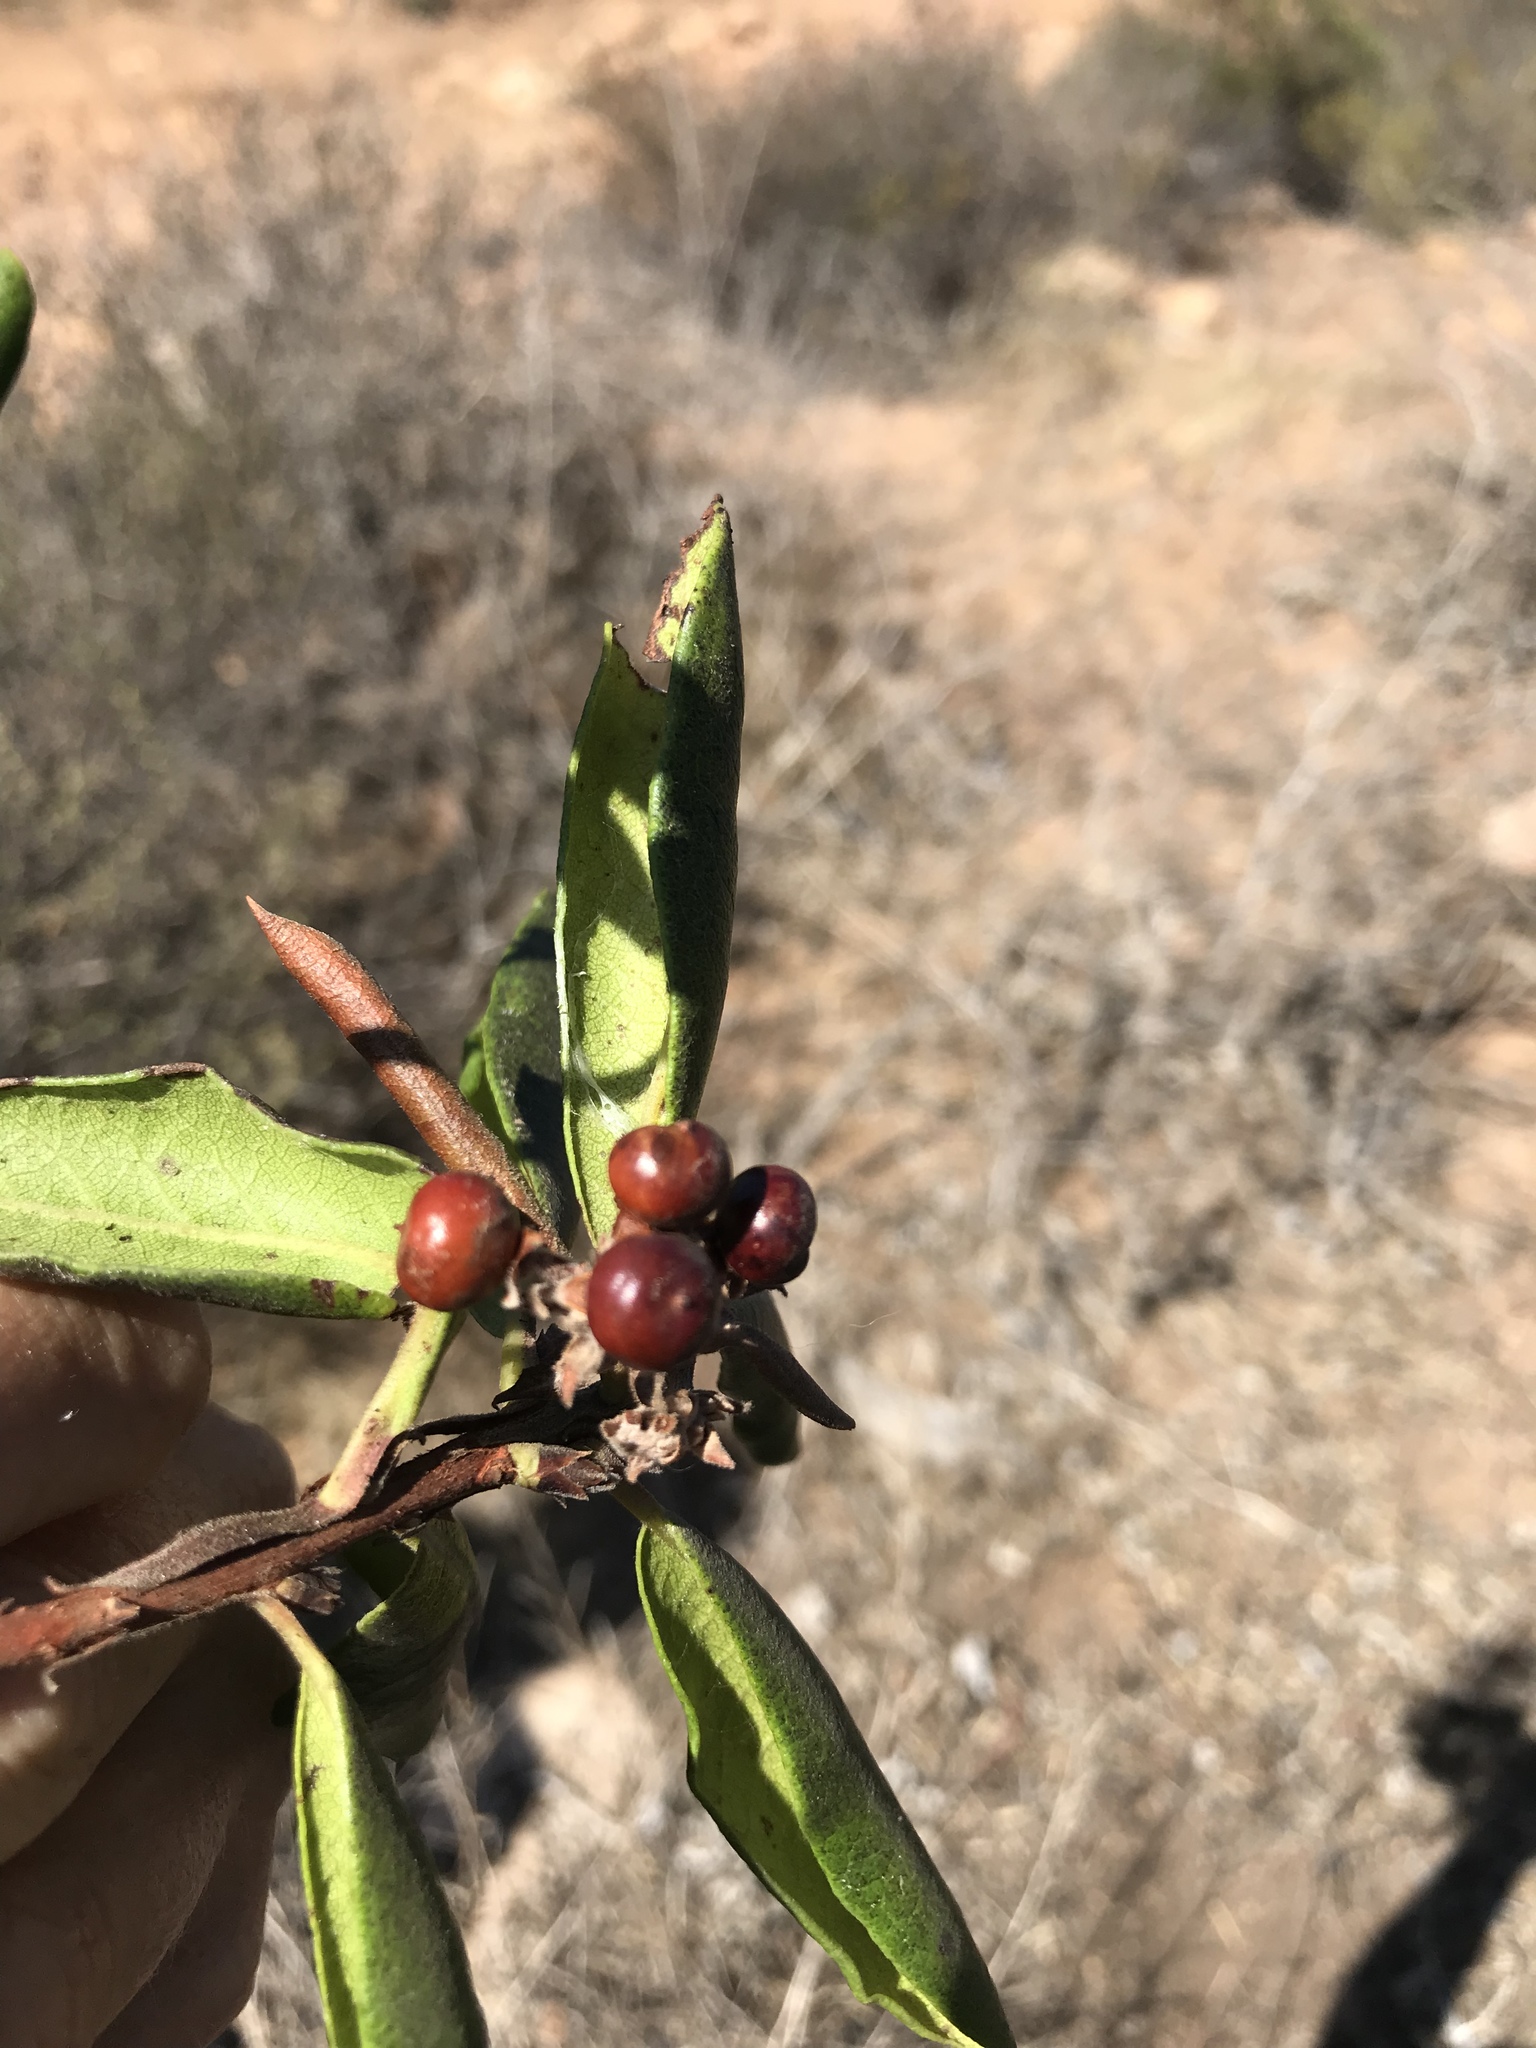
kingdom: Plantae
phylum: Tracheophyta
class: Magnoliopsida
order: Ericales
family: Ericaceae
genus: Arctostaphylos
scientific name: Arctostaphylos bicolor
